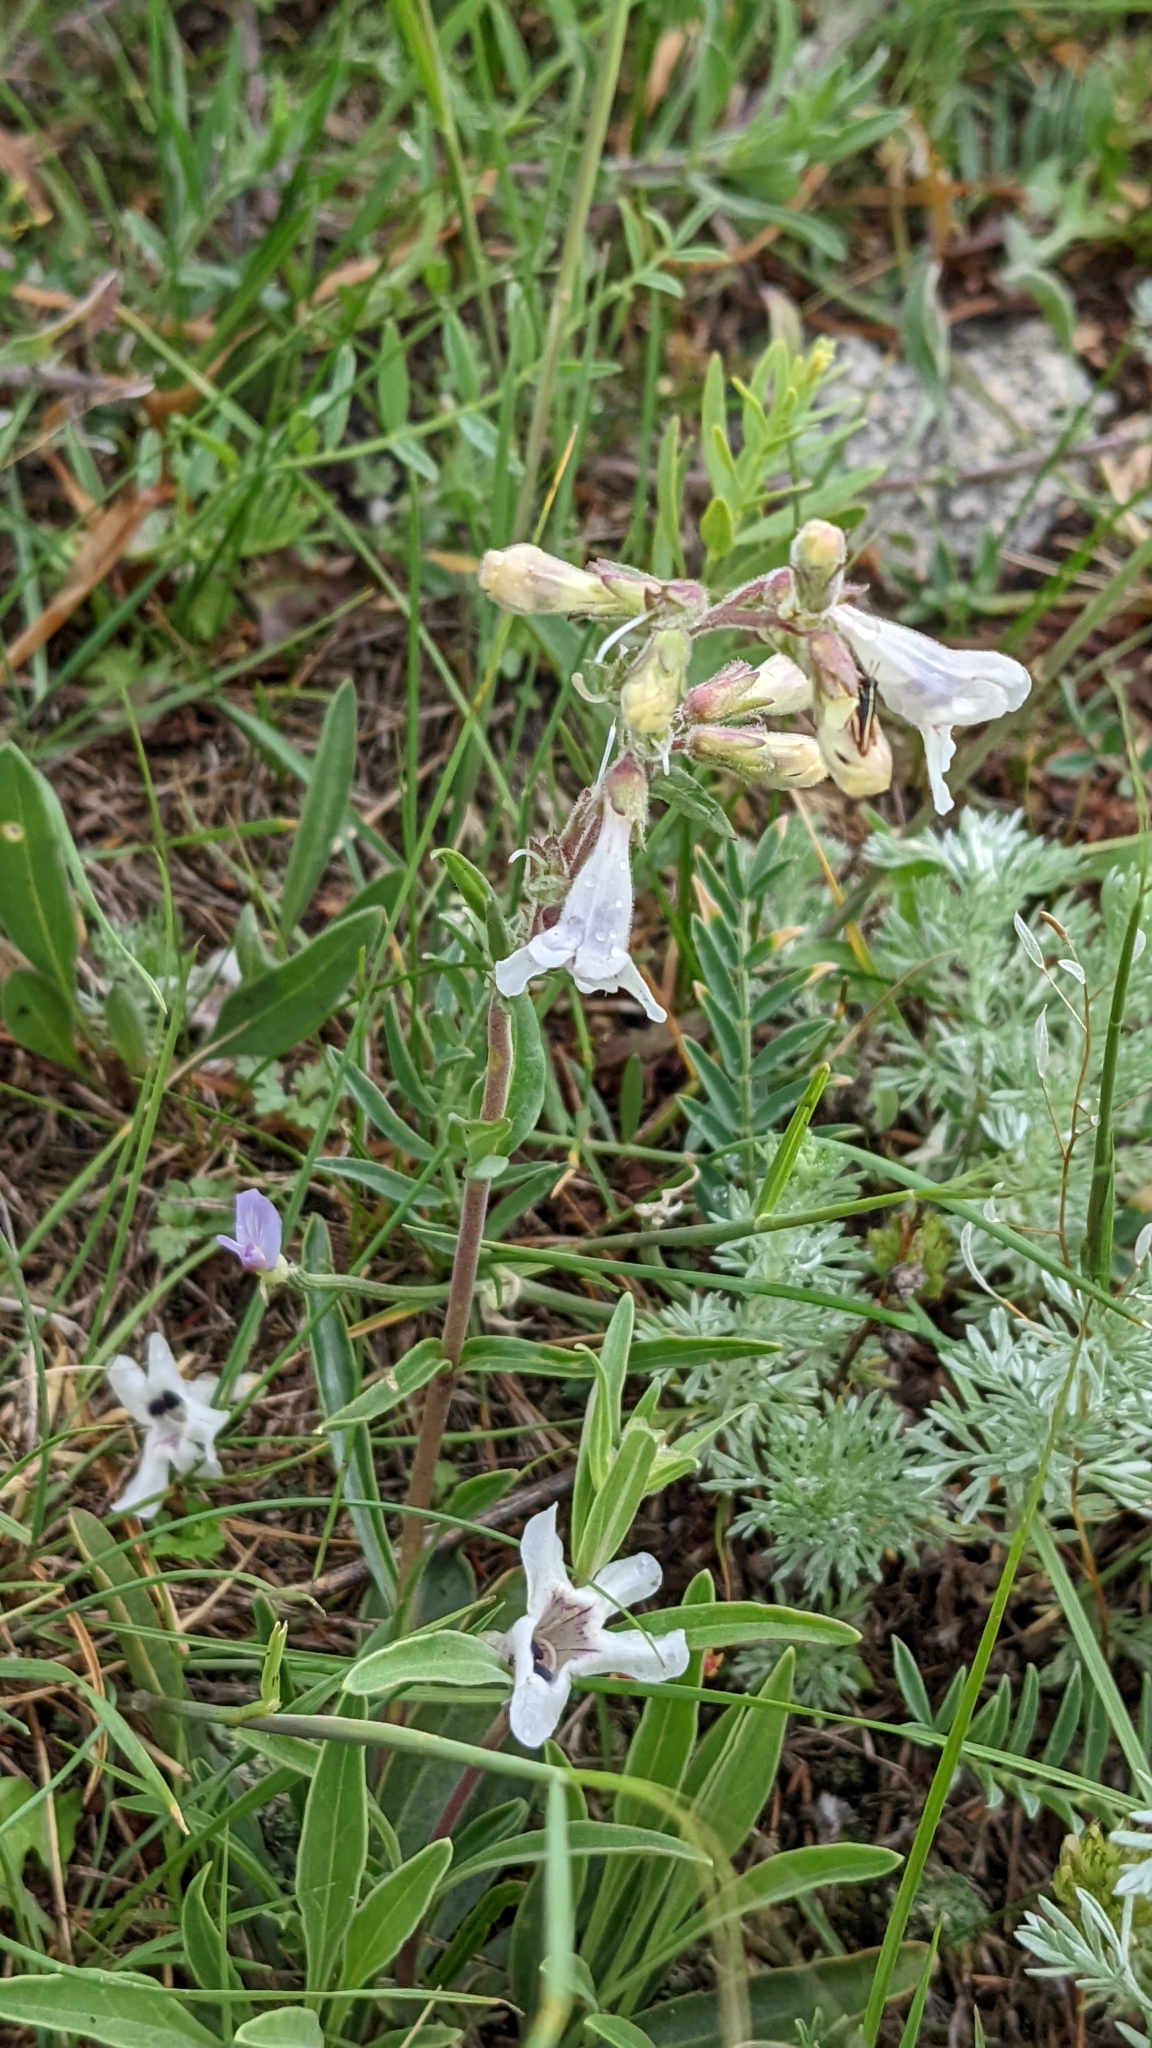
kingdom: Plantae
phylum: Tracheophyta
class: Magnoliopsida
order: Lamiales
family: Plantaginaceae
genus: Penstemon
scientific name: Penstemon albidus
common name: White beardtongue
